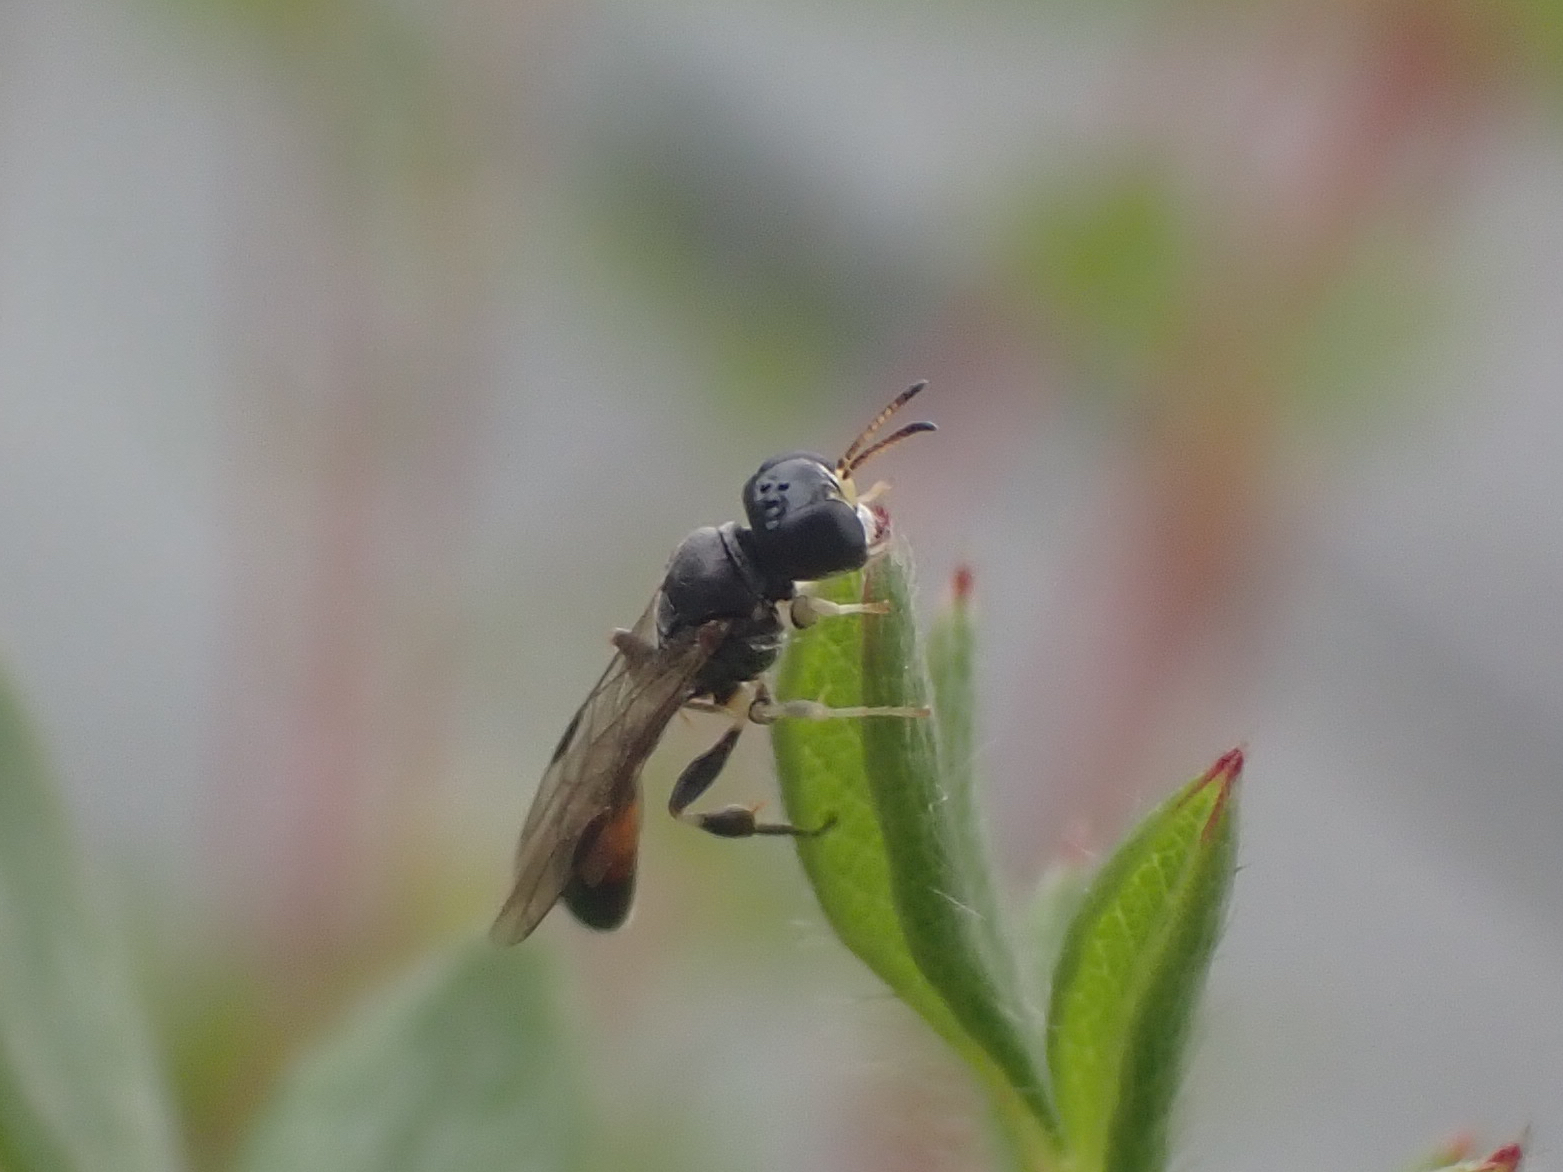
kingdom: Animalia
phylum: Arthropoda
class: Insecta
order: Hymenoptera
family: Crabronidae
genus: Rhopalum
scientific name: Rhopalum clavipes
